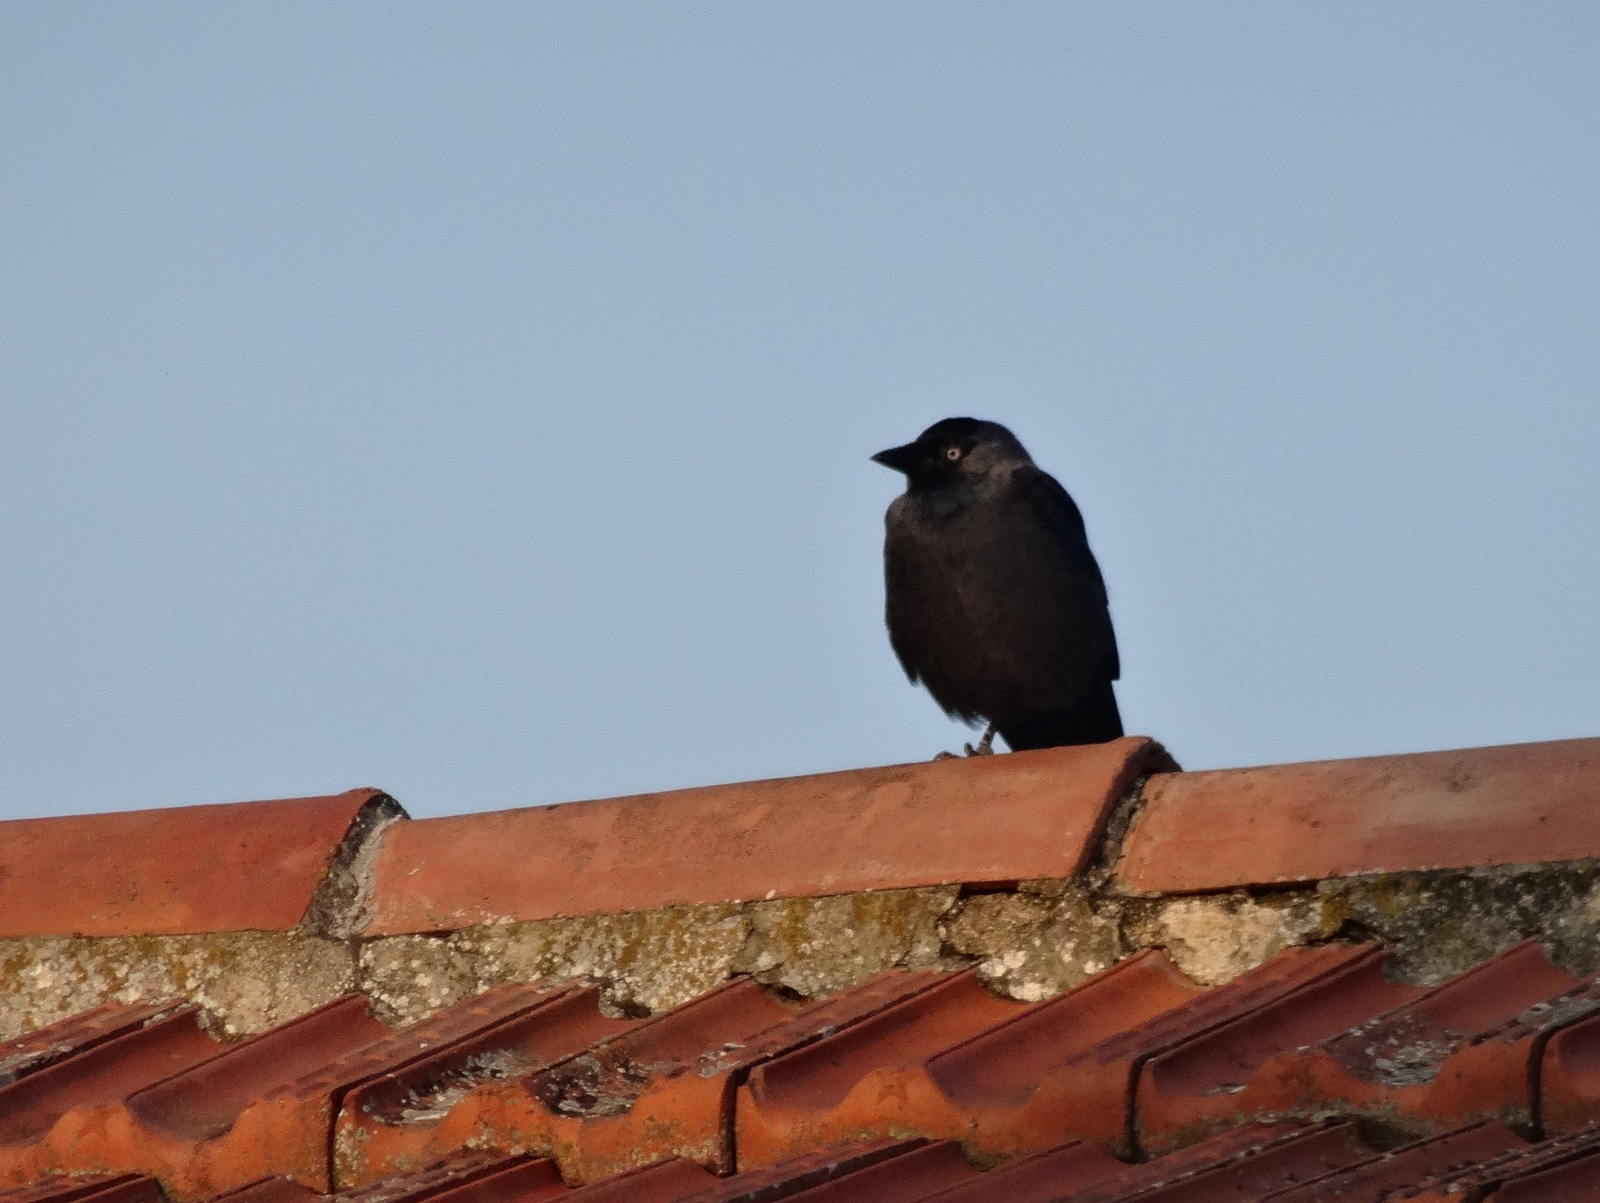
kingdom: Animalia
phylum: Chordata
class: Aves
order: Passeriformes
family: Corvidae
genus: Coloeus
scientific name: Coloeus monedula
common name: Western jackdaw
